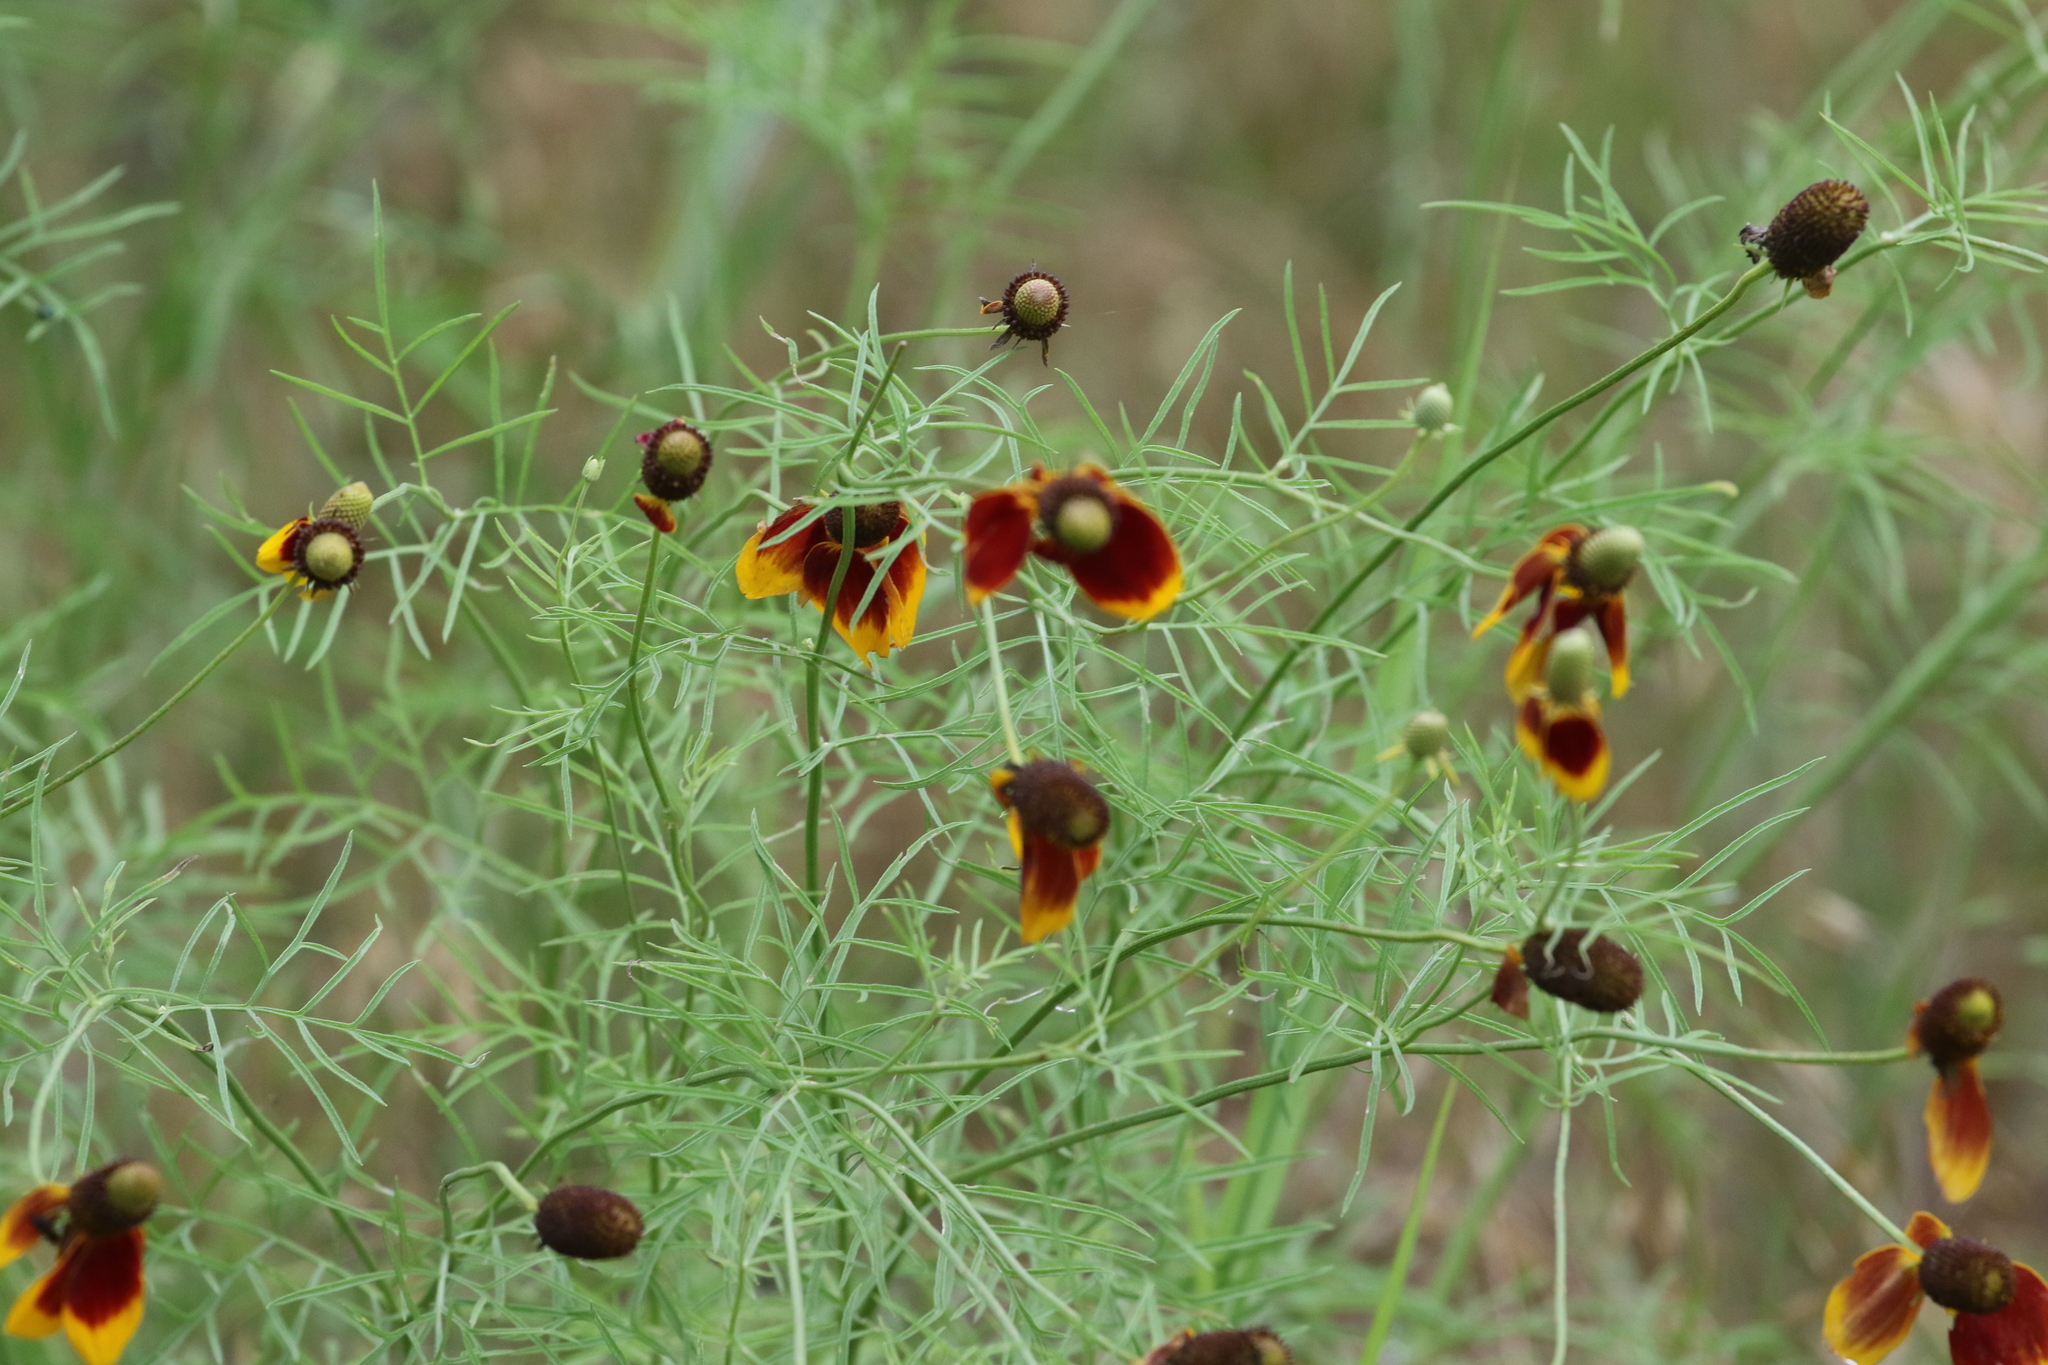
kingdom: Plantae
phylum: Tracheophyta
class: Magnoliopsida
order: Asterales
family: Asteraceae
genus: Ratibida
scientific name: Ratibida columnifera
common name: Prairie coneflower
